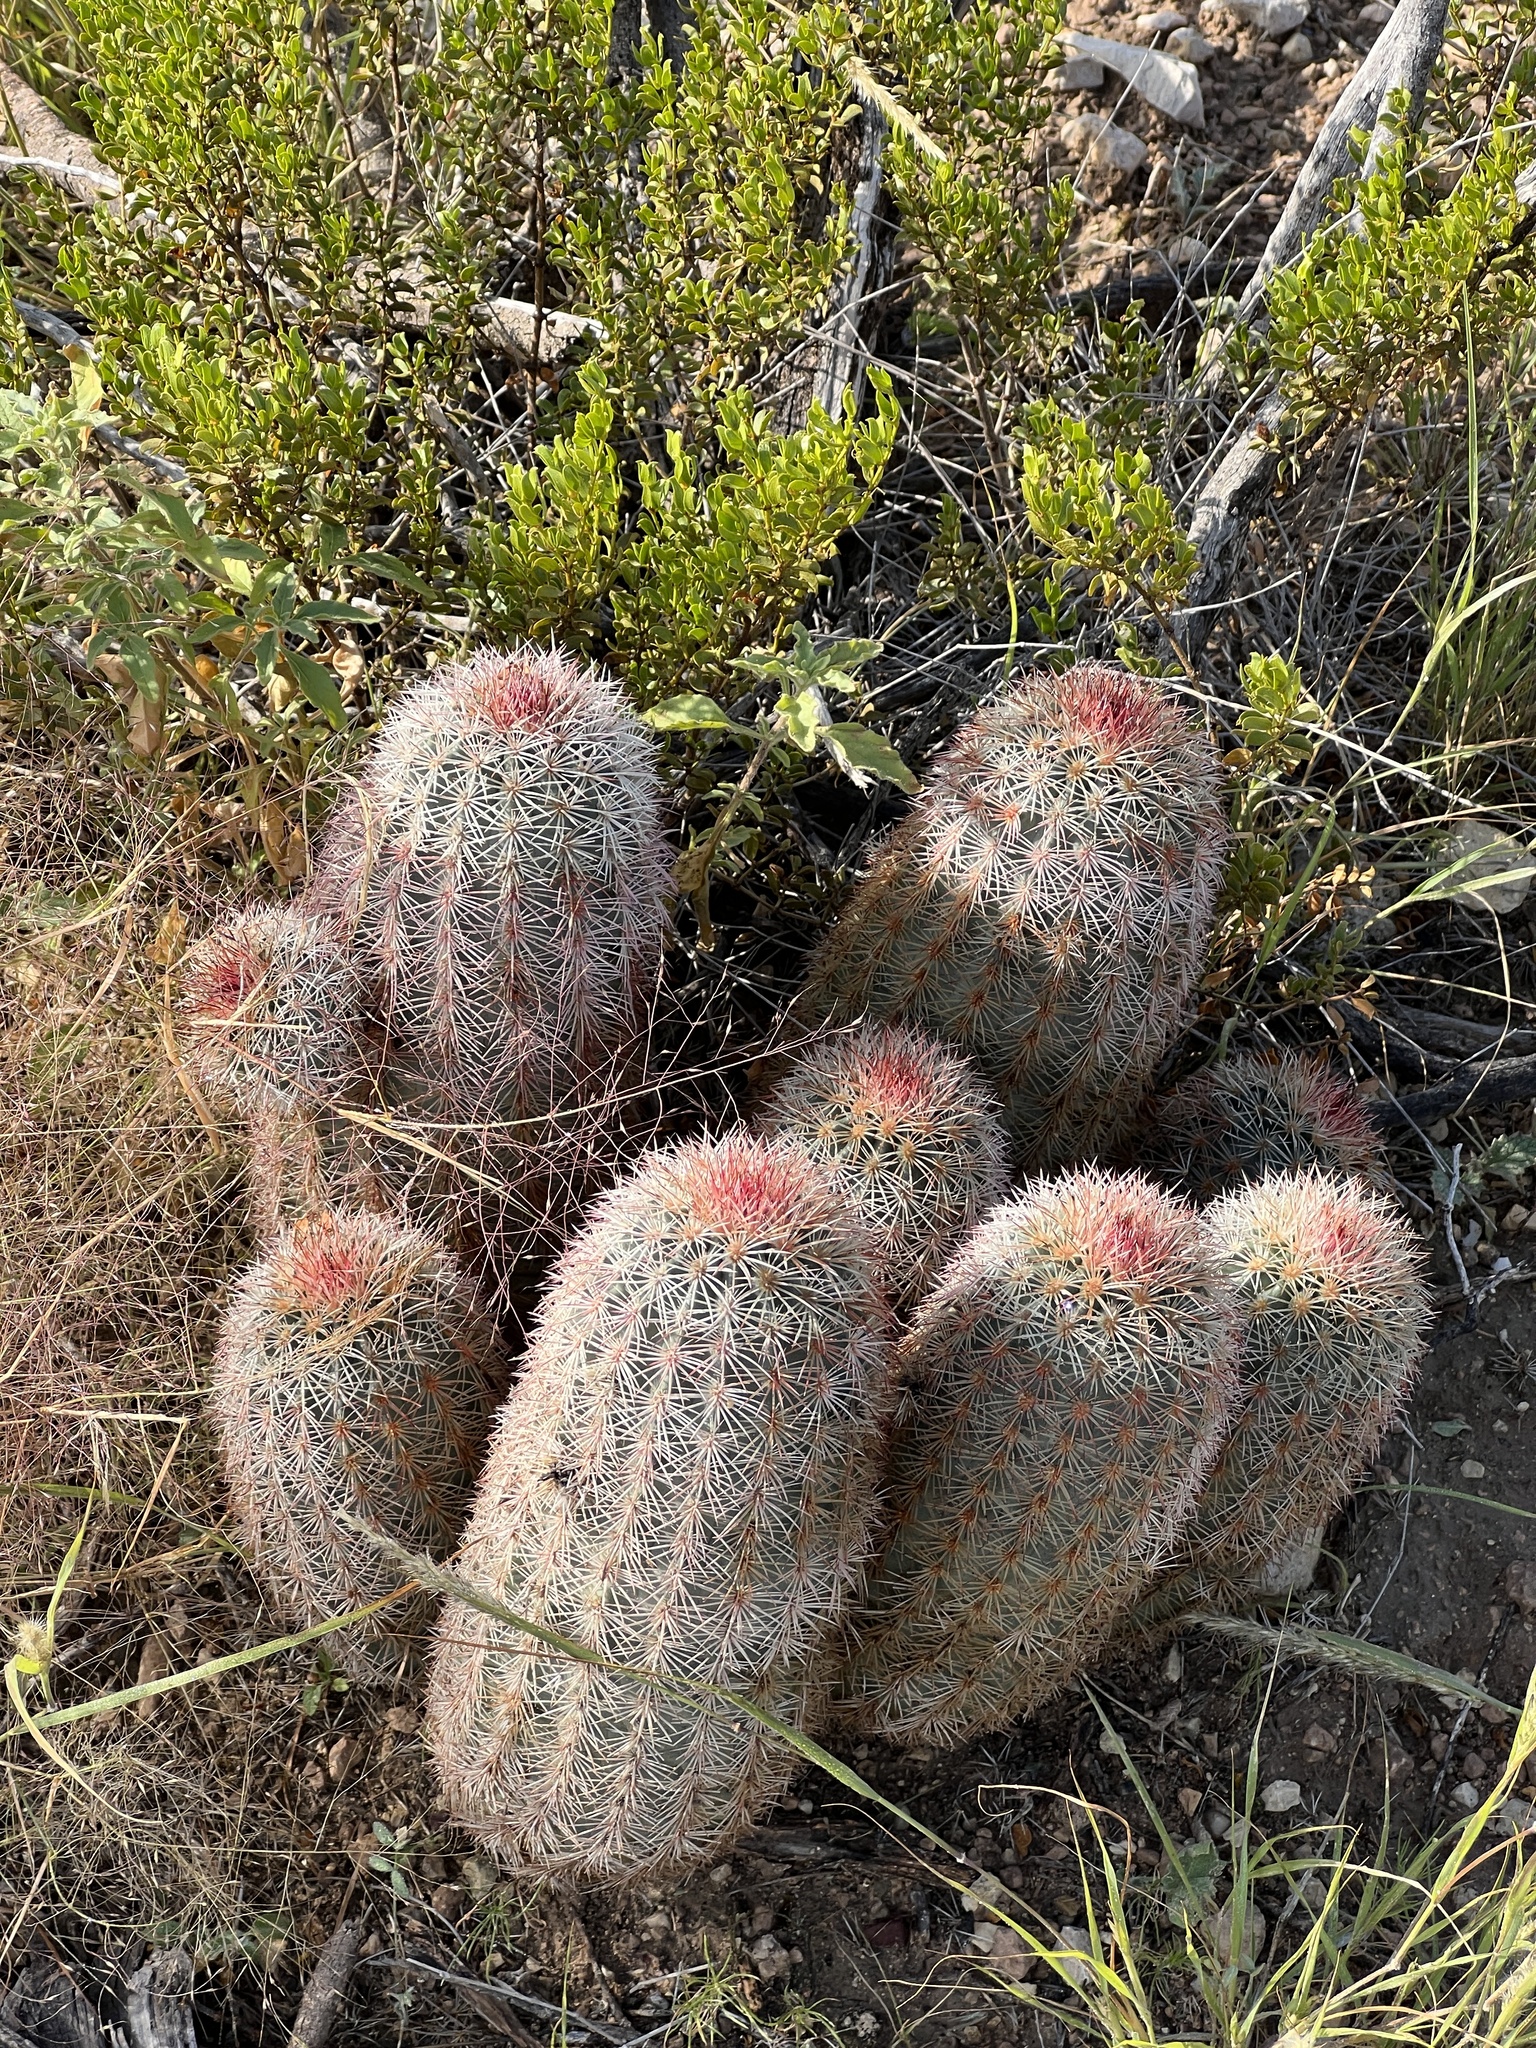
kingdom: Plantae
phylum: Tracheophyta
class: Magnoliopsida
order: Caryophyllales
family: Cactaceae
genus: Echinocereus
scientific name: Echinocereus dasyacanthus
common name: Spiny hedgehog cactus
